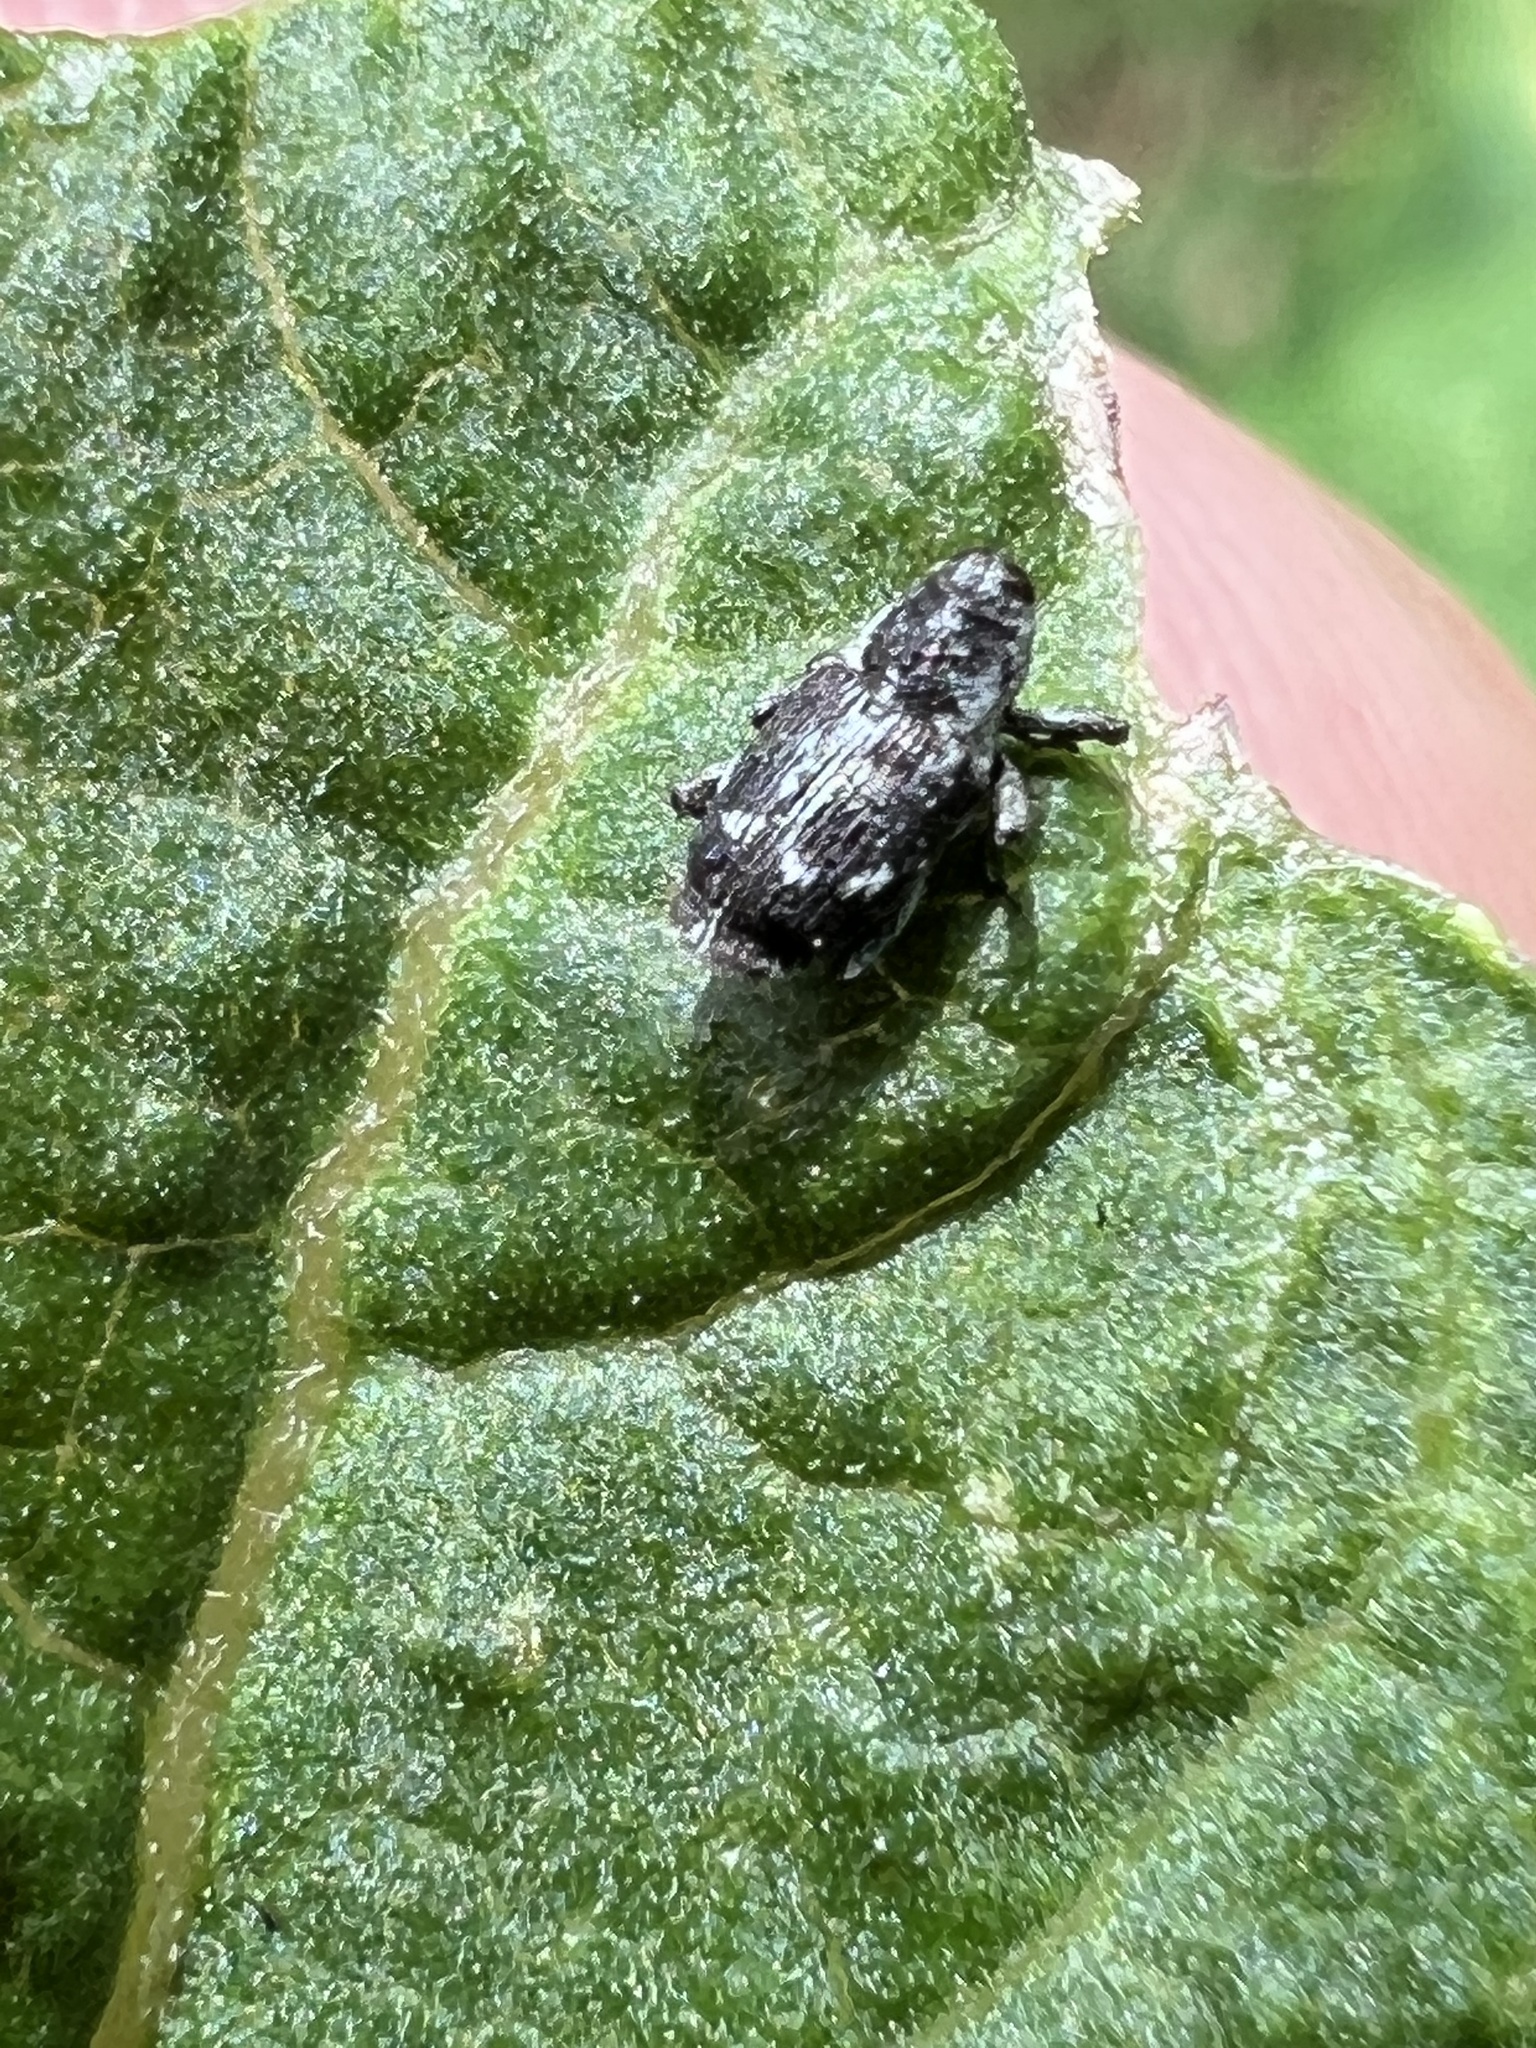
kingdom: Animalia
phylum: Arthropoda
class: Insecta
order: Coleoptera
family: Curculionidae
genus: Cylindrocopturus
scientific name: Cylindrocopturus quercus
